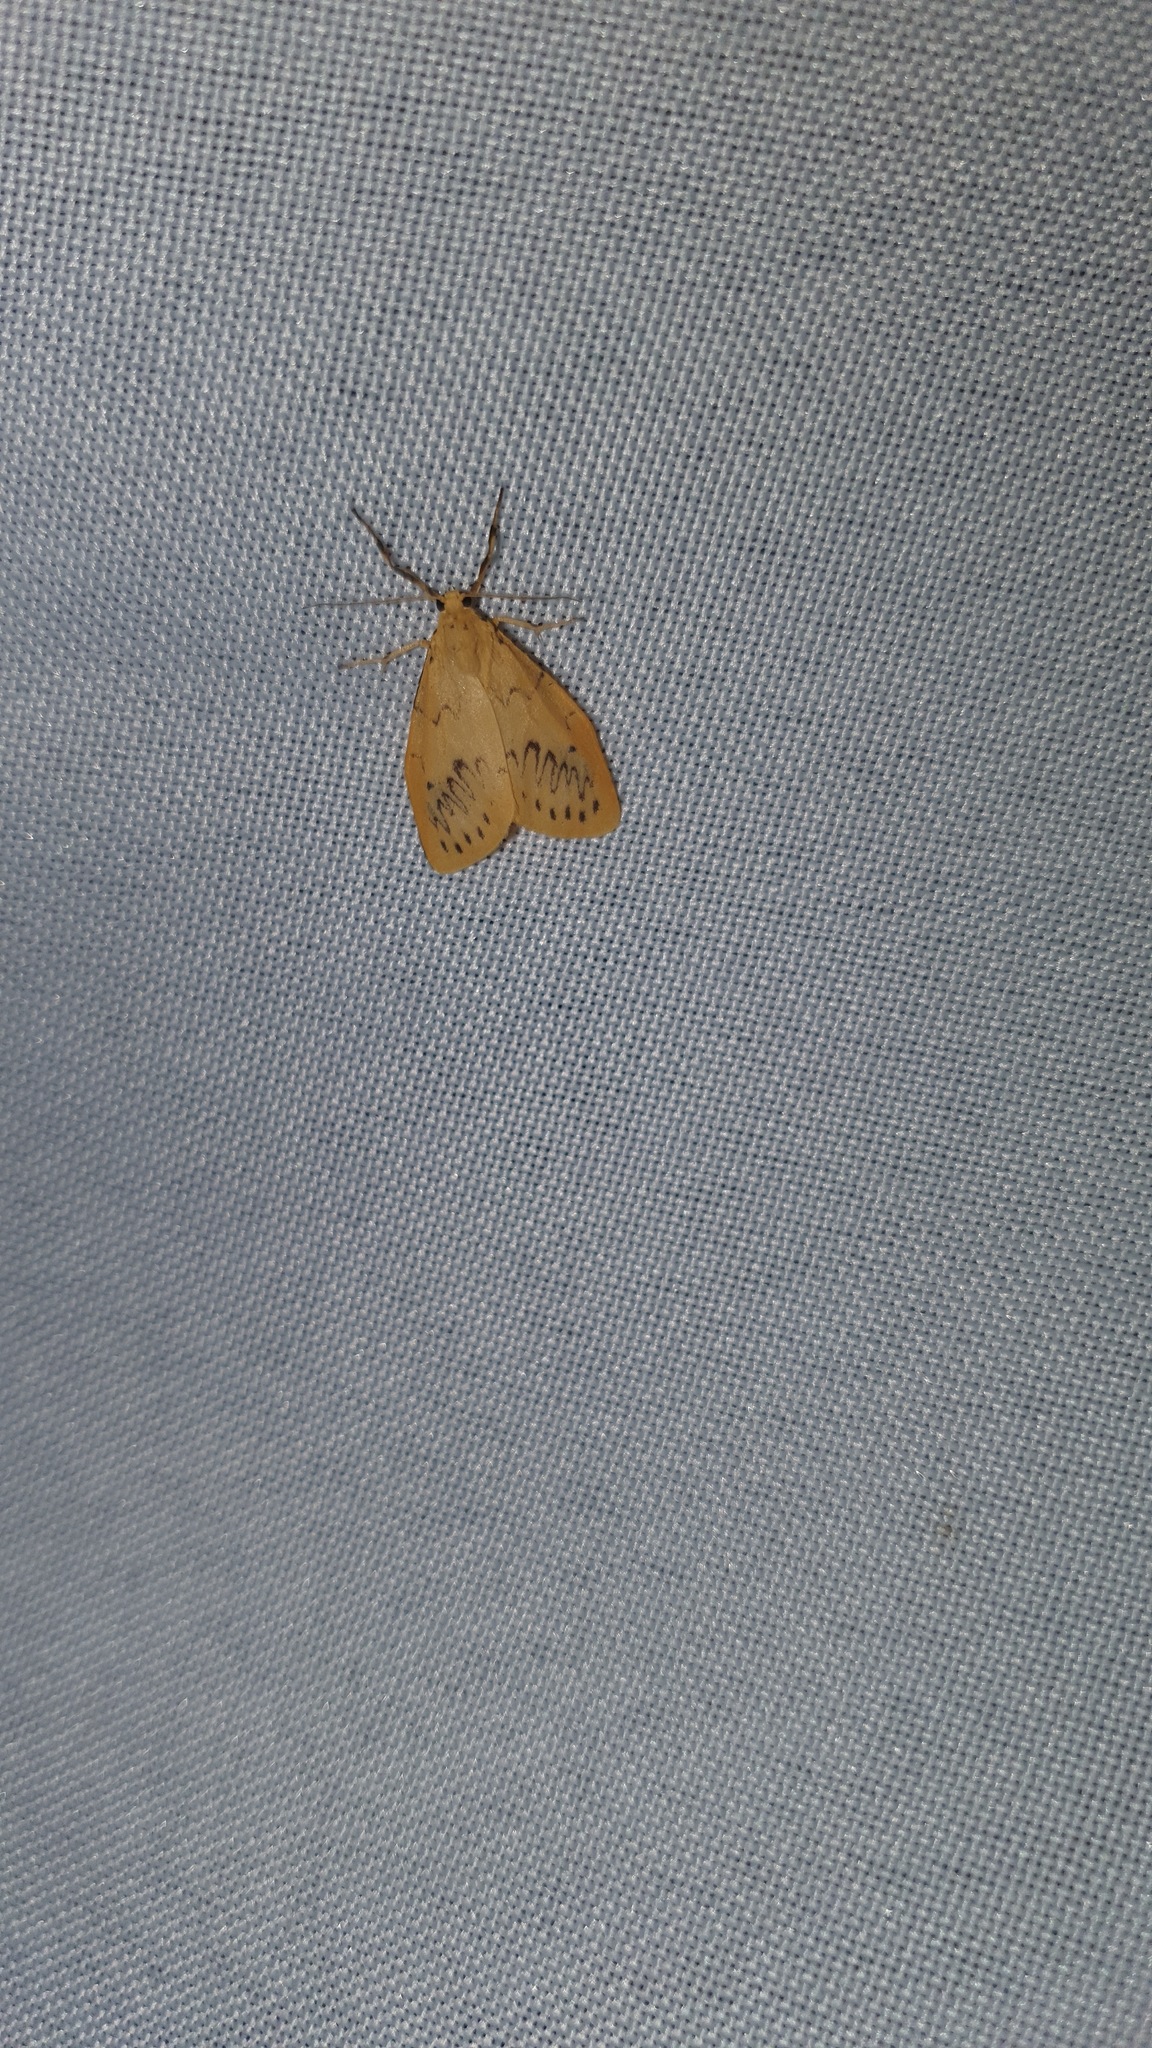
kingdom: Animalia
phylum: Arthropoda
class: Insecta
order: Lepidoptera
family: Erebidae
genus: Miltochrista
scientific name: Miltochrista miniata
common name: Rosy footman
